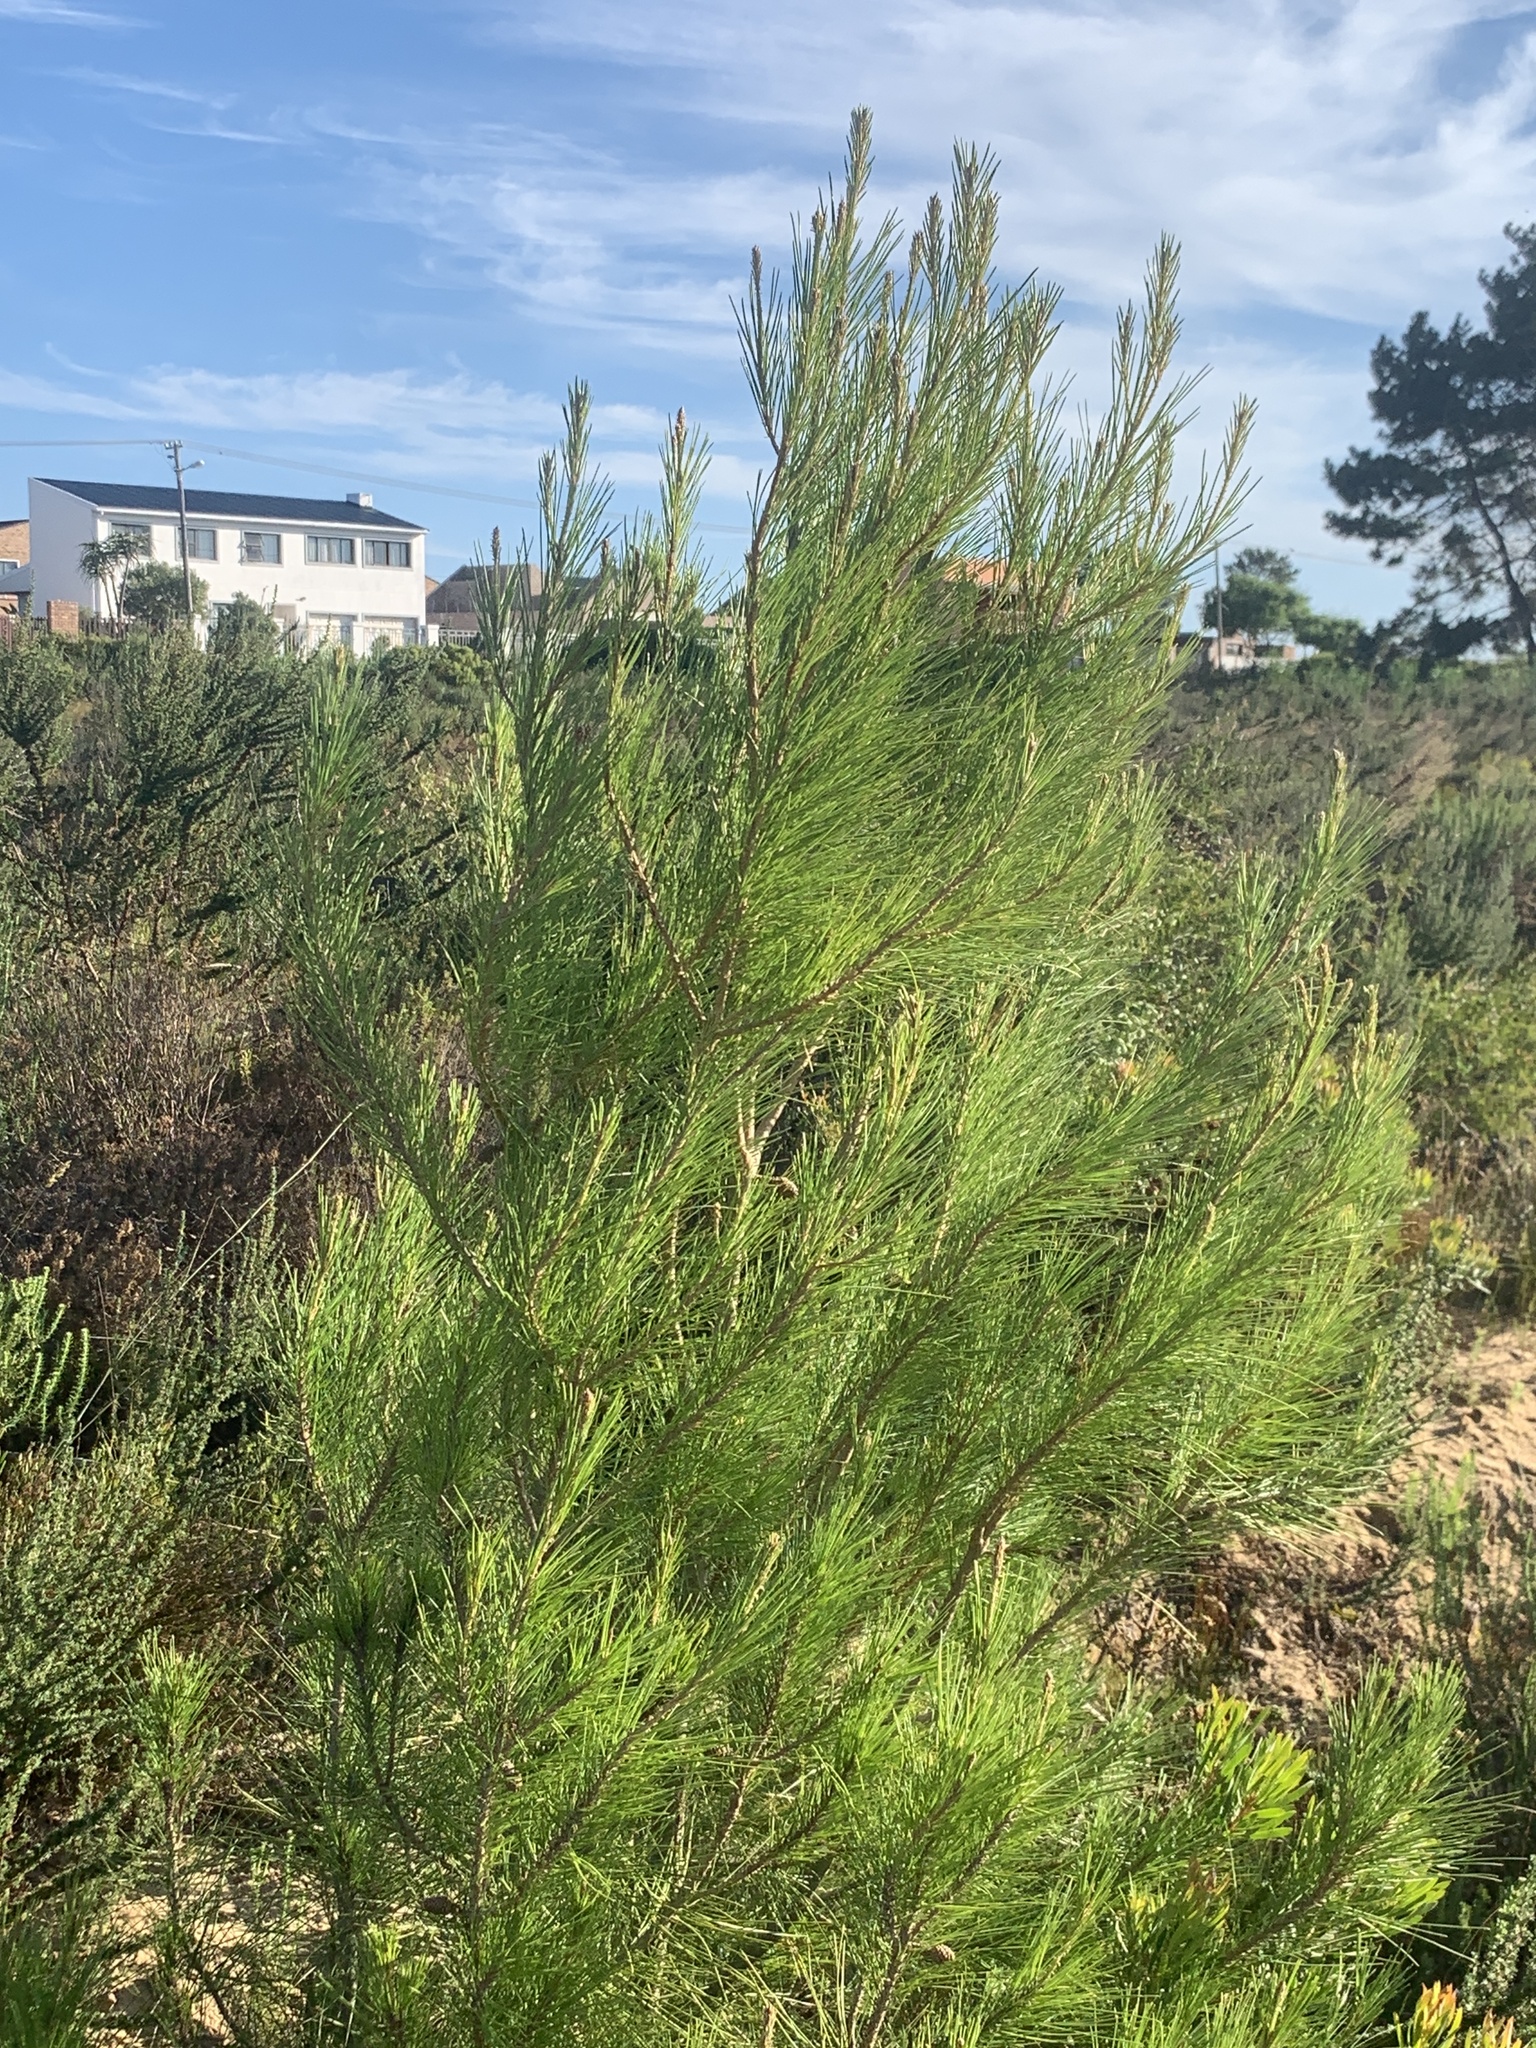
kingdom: Plantae
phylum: Tracheophyta
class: Pinopsida
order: Pinales
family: Pinaceae
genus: Pinus
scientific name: Pinus halepensis
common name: Aleppo pine
